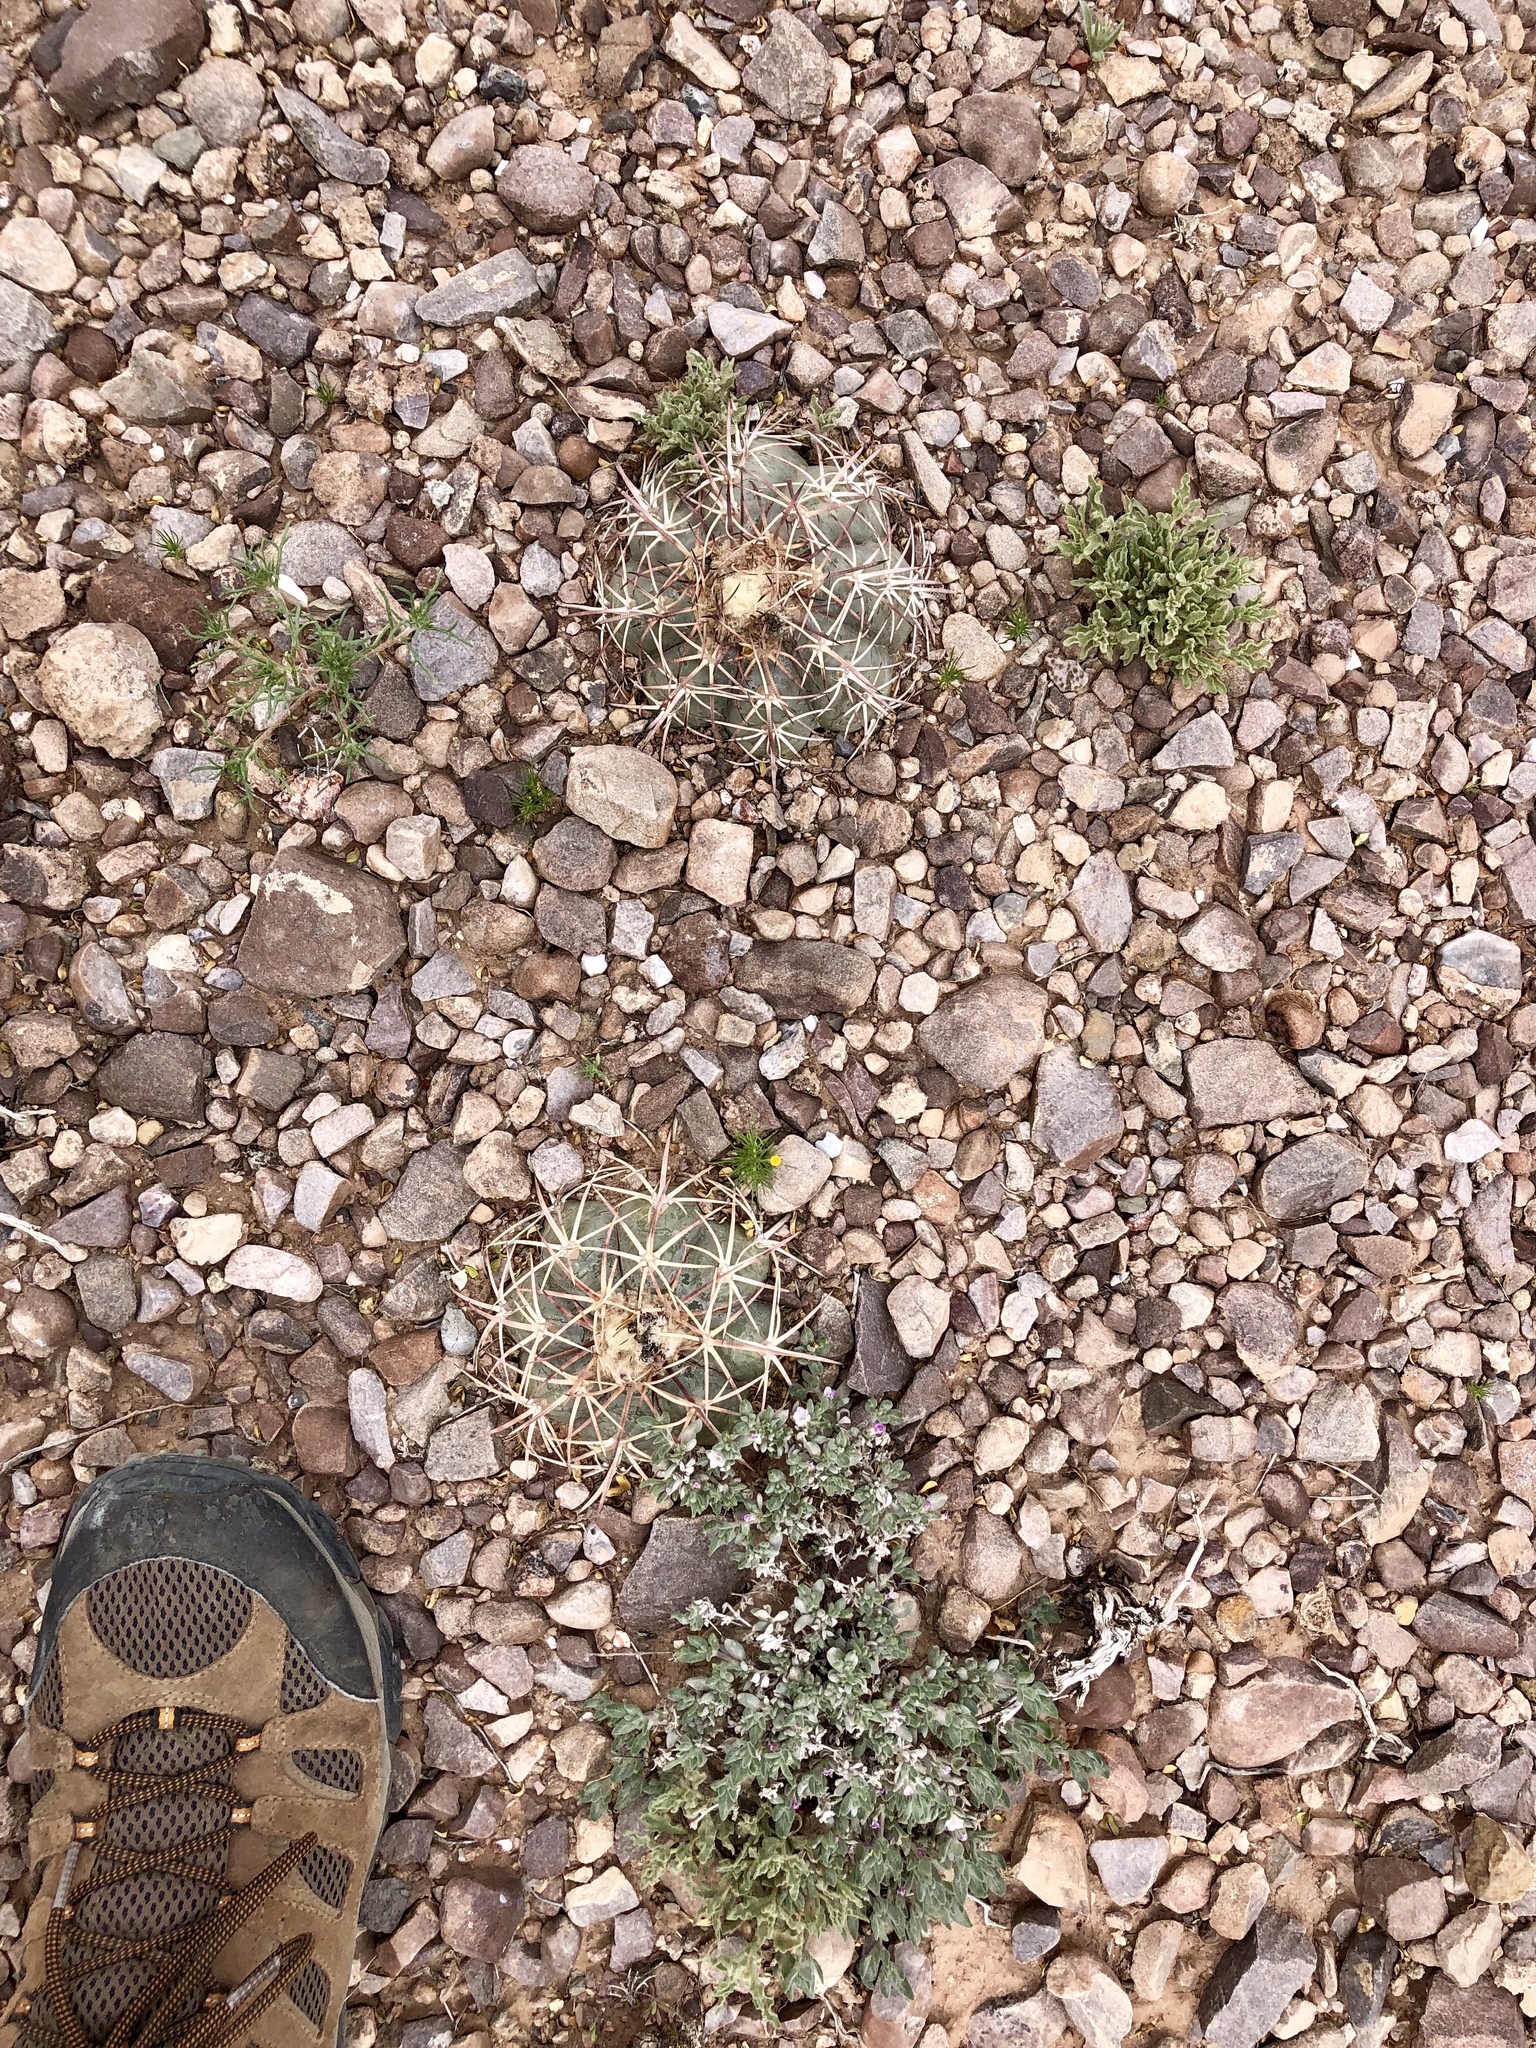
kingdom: Plantae
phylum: Tracheophyta
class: Magnoliopsida
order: Caryophyllales
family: Cactaceae
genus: Echinocactus
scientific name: Echinocactus horizonthalonius
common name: Devilshead
